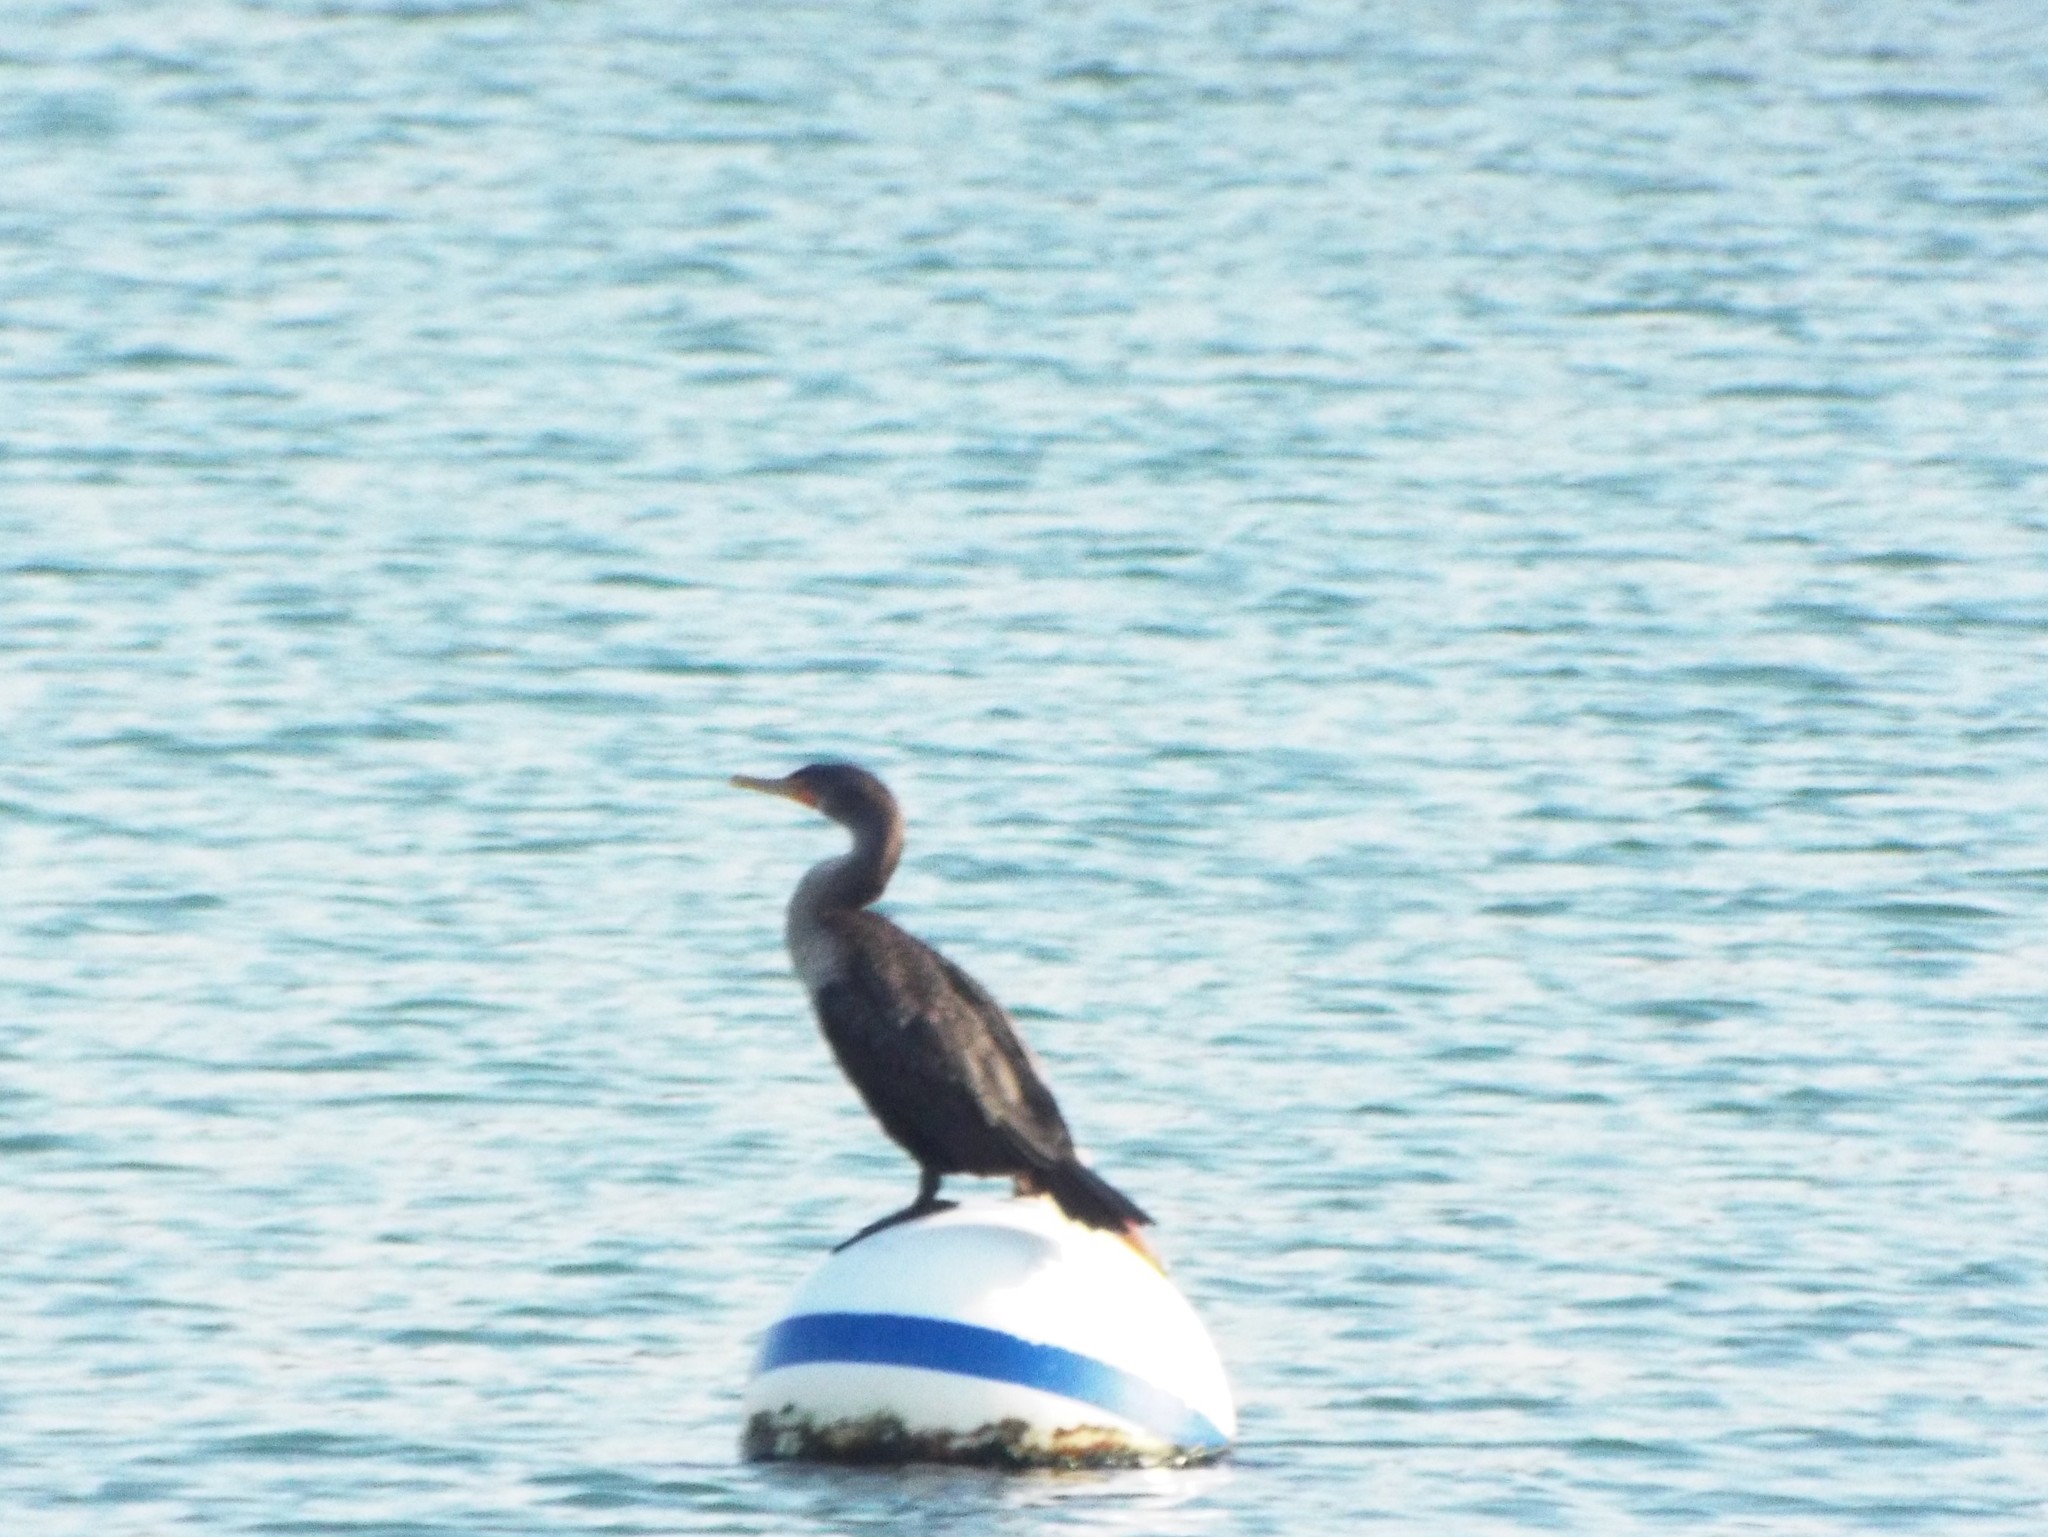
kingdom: Animalia
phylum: Chordata
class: Aves
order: Suliformes
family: Phalacrocoracidae
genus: Phalacrocorax
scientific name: Phalacrocorax auritus
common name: Double-crested cormorant
